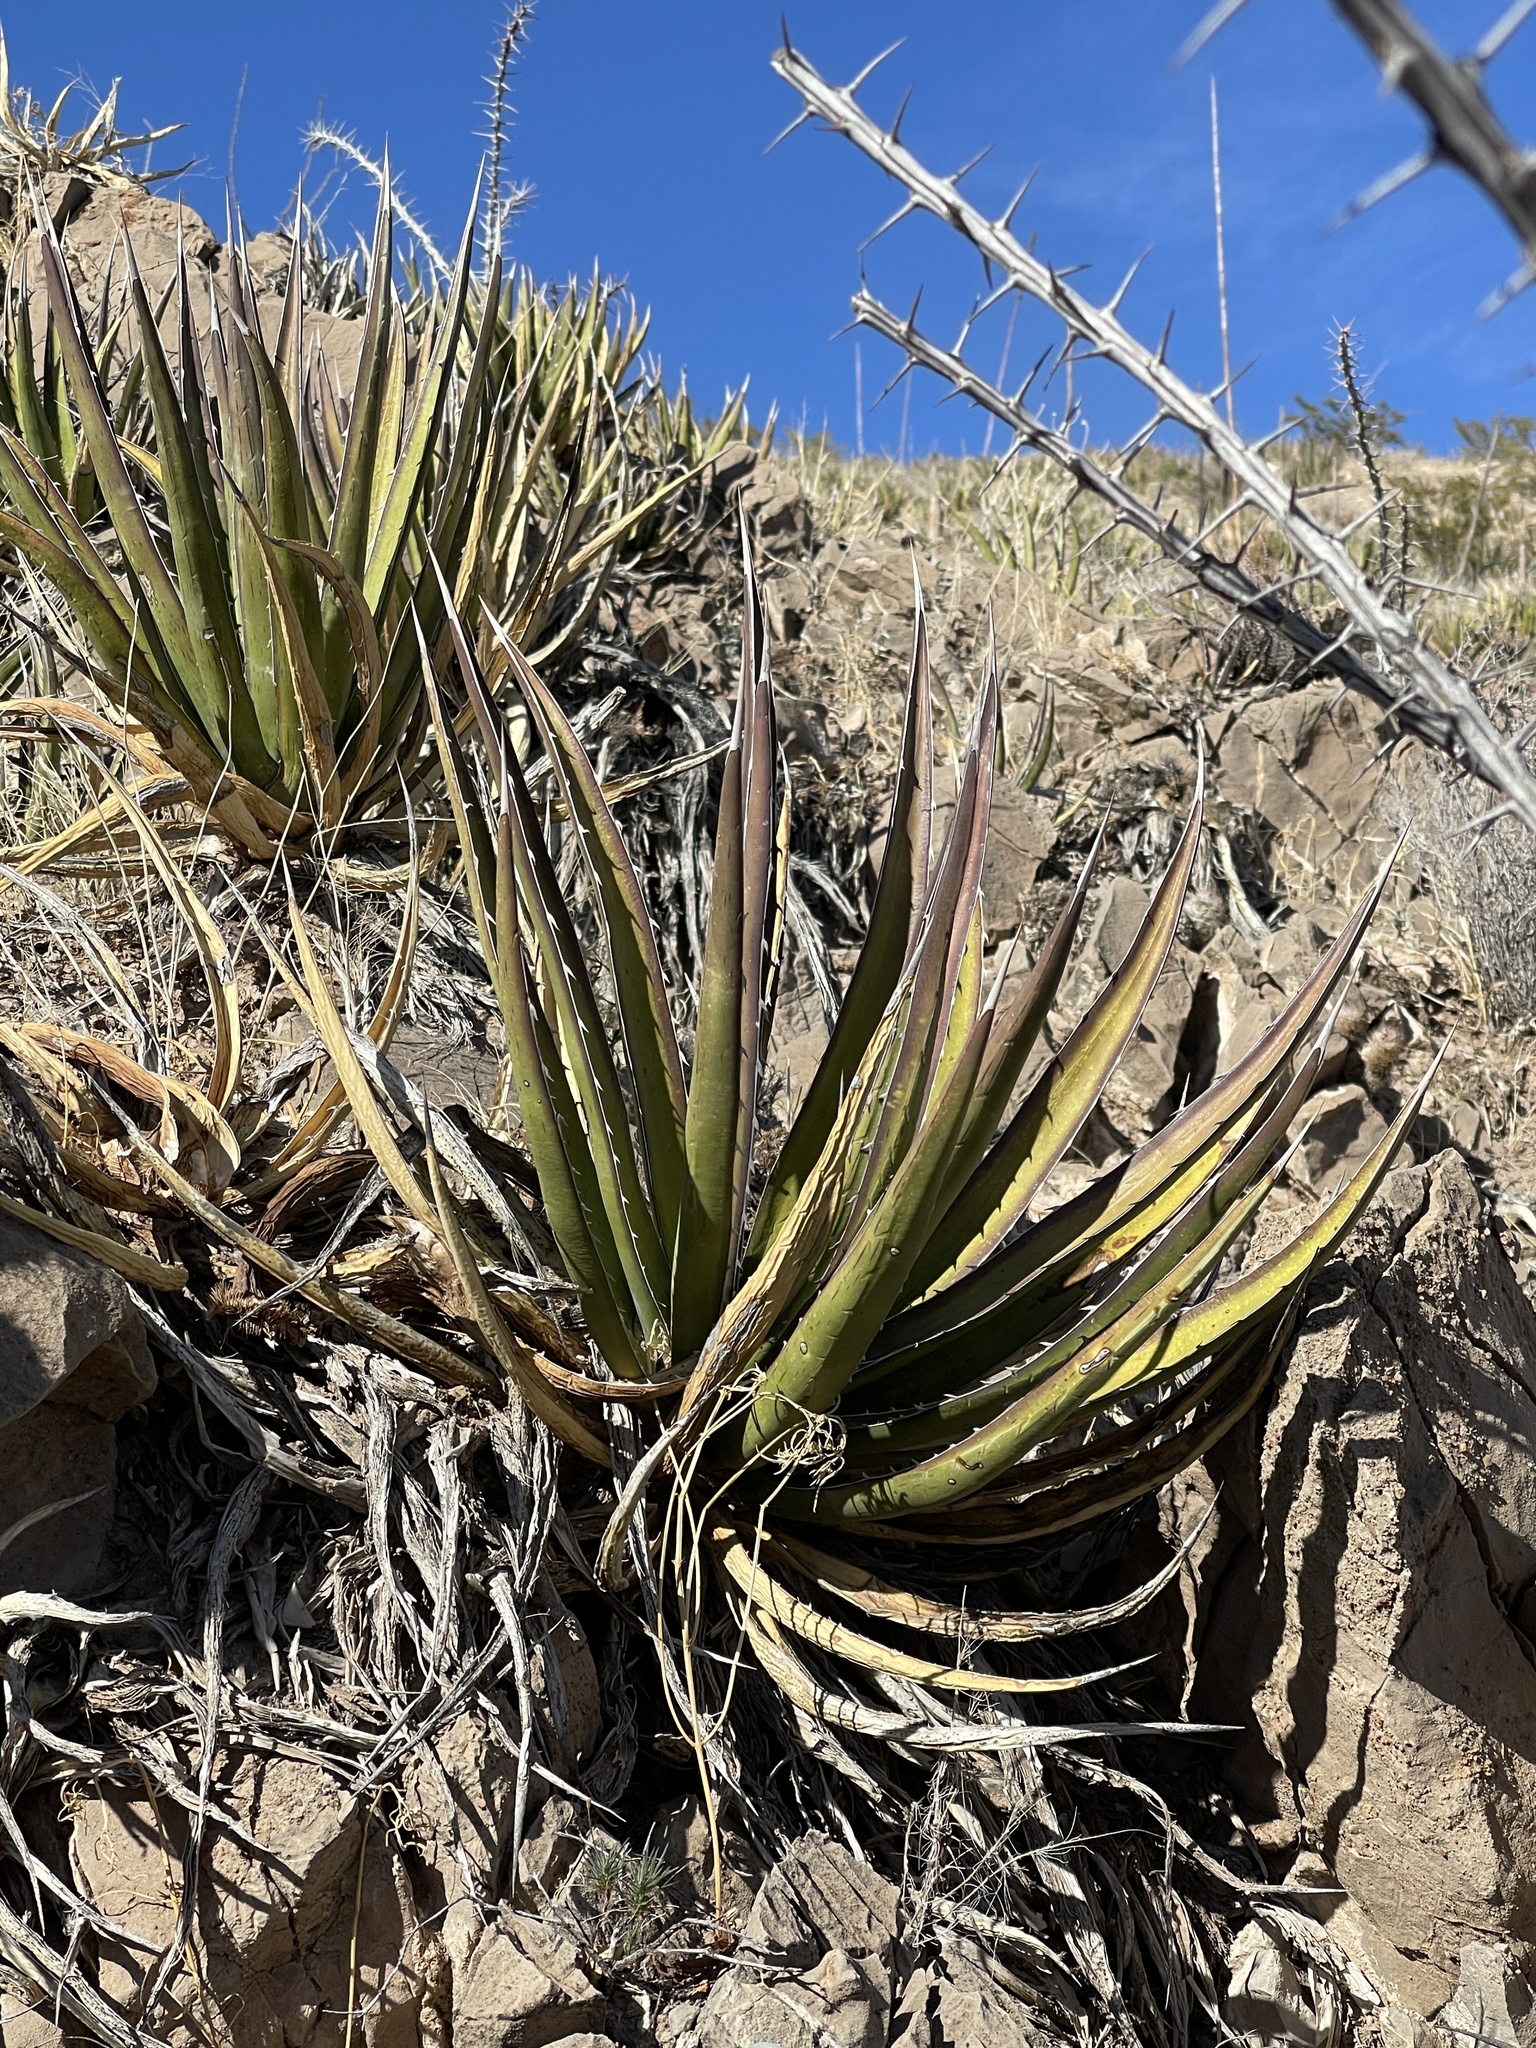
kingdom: Plantae
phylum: Tracheophyta
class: Liliopsida
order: Asparagales
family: Asparagaceae
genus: Agave
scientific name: Agave lechuguilla
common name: Lecheguilla agave
